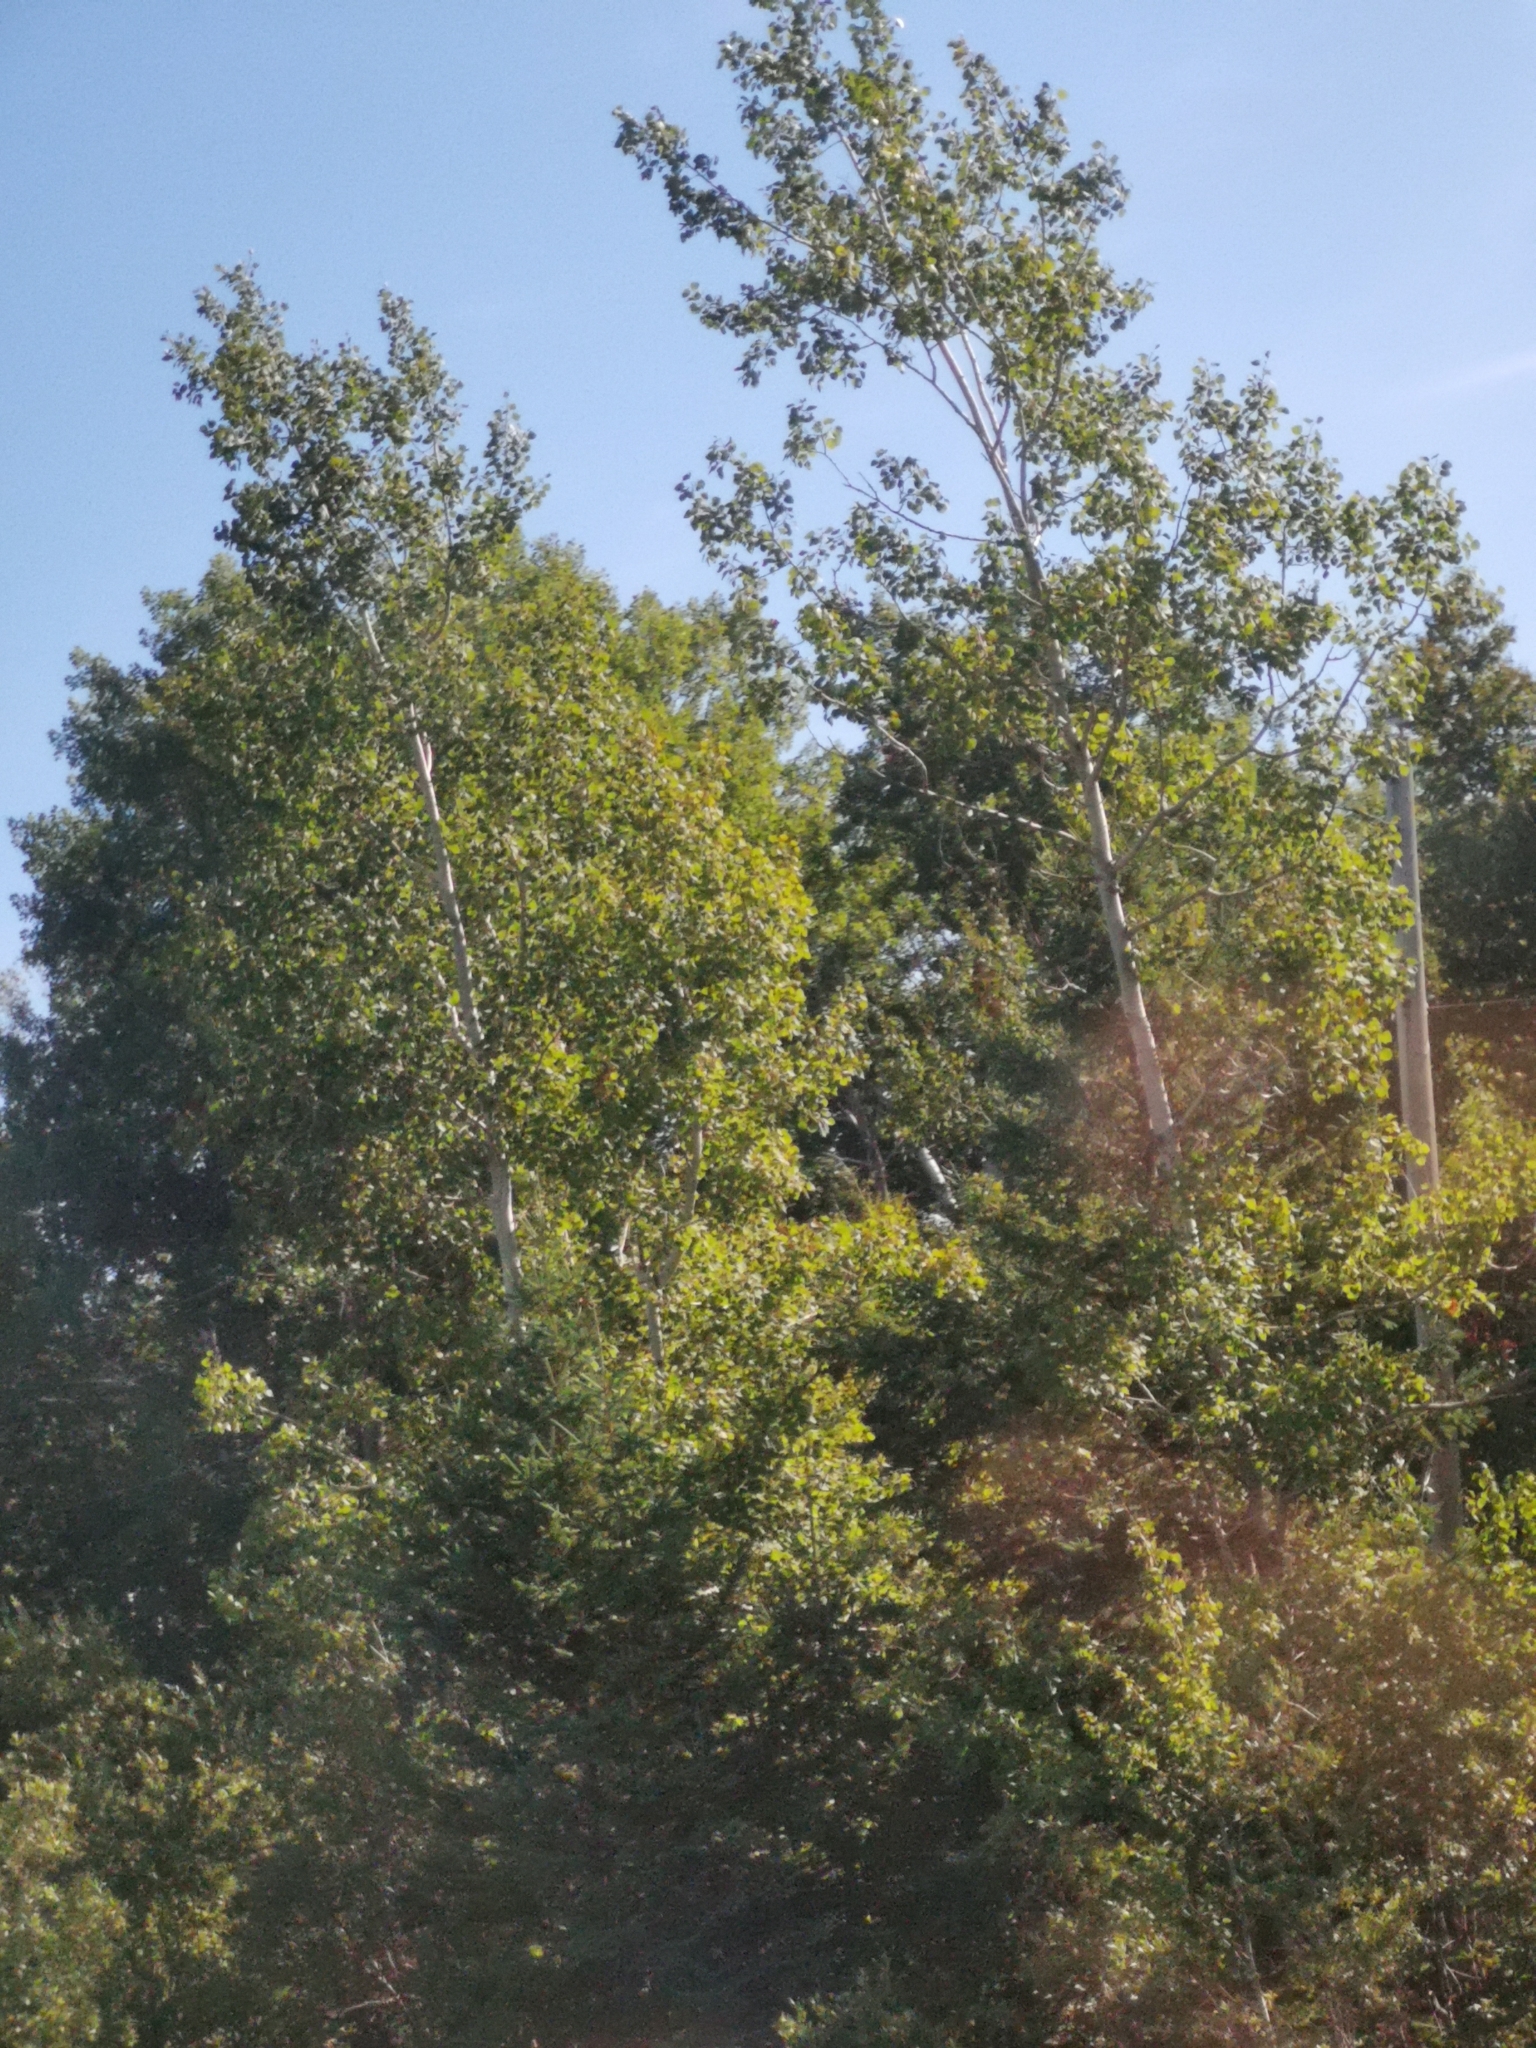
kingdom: Plantae
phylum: Tracheophyta
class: Magnoliopsida
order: Malpighiales
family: Salicaceae
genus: Populus
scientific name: Populus tremuloides
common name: Quaking aspen
